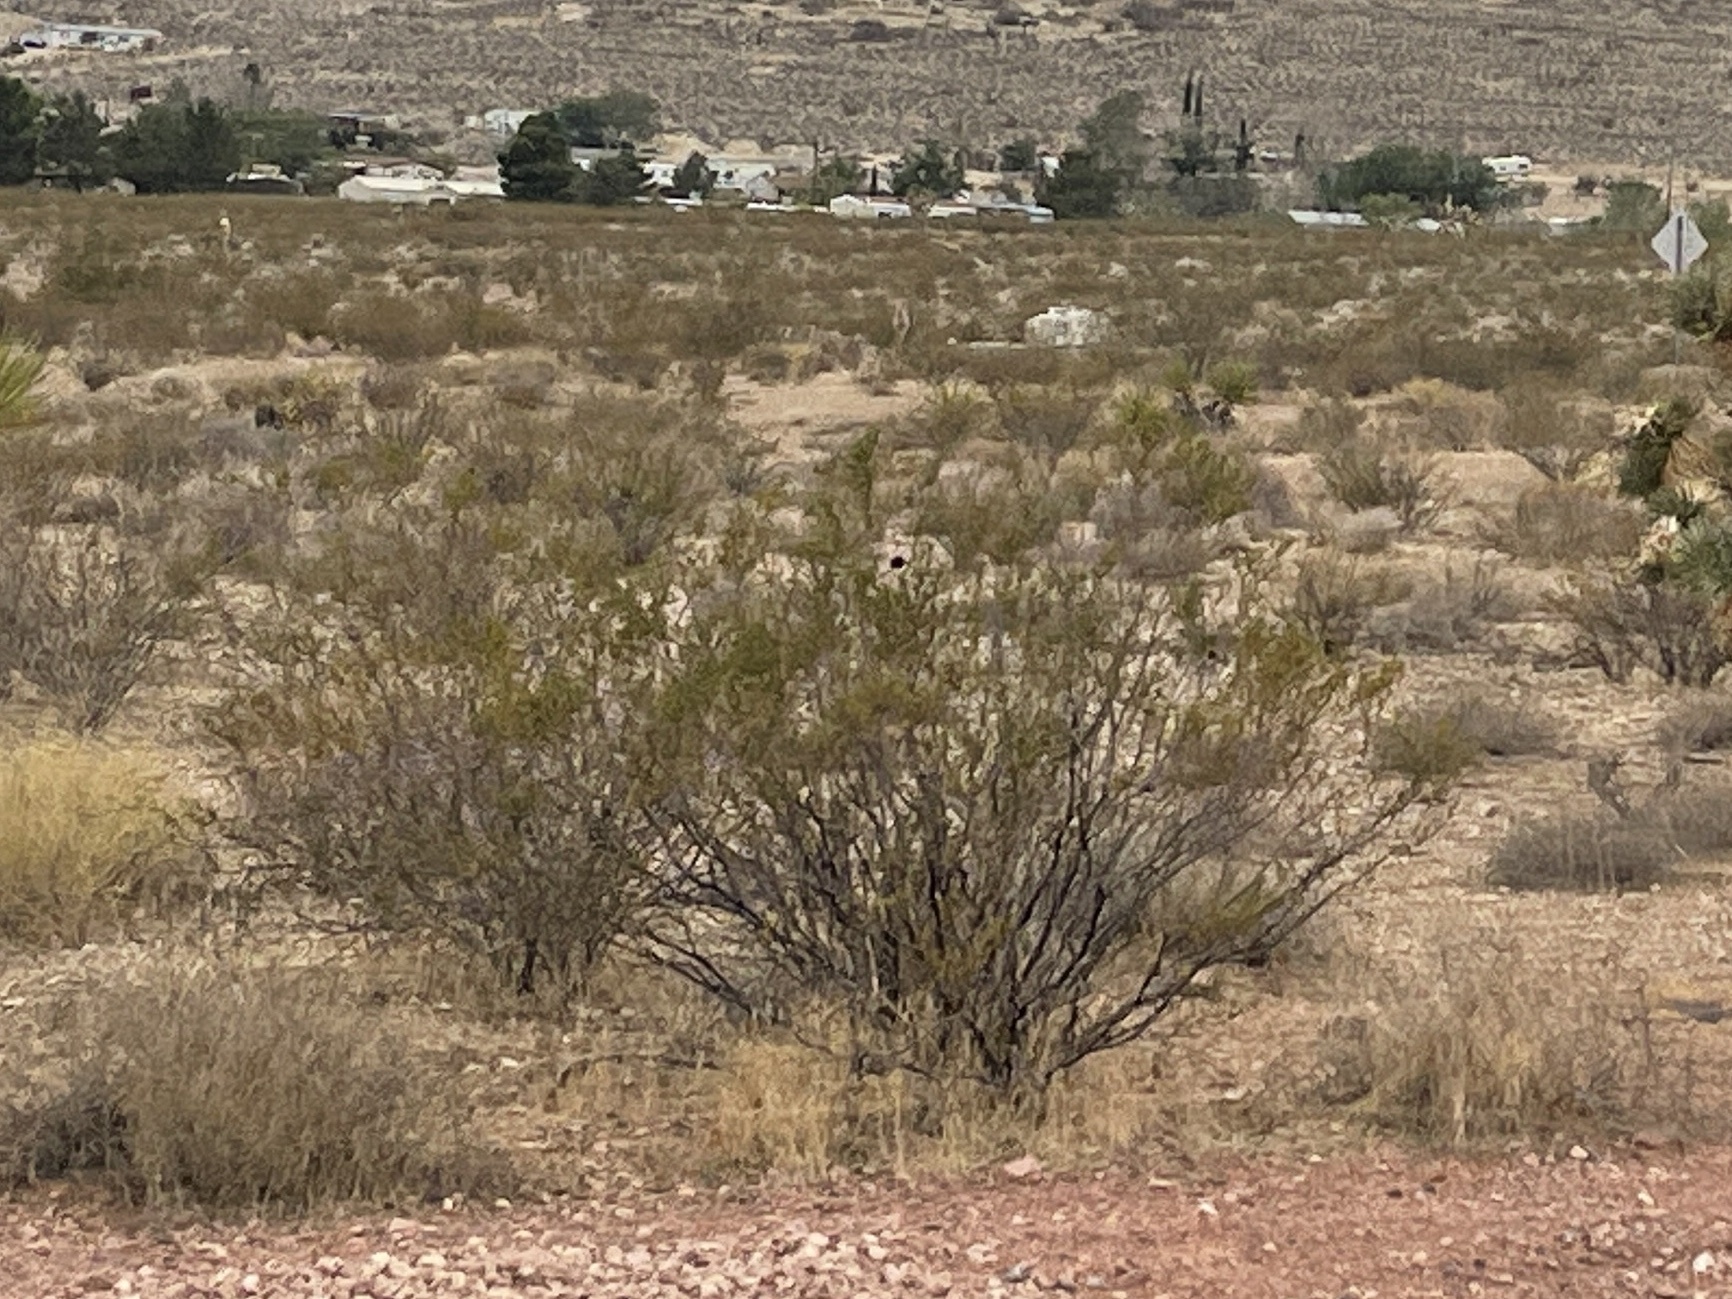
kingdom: Plantae
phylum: Tracheophyta
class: Magnoliopsida
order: Zygophyllales
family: Zygophyllaceae
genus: Larrea
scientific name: Larrea tridentata
